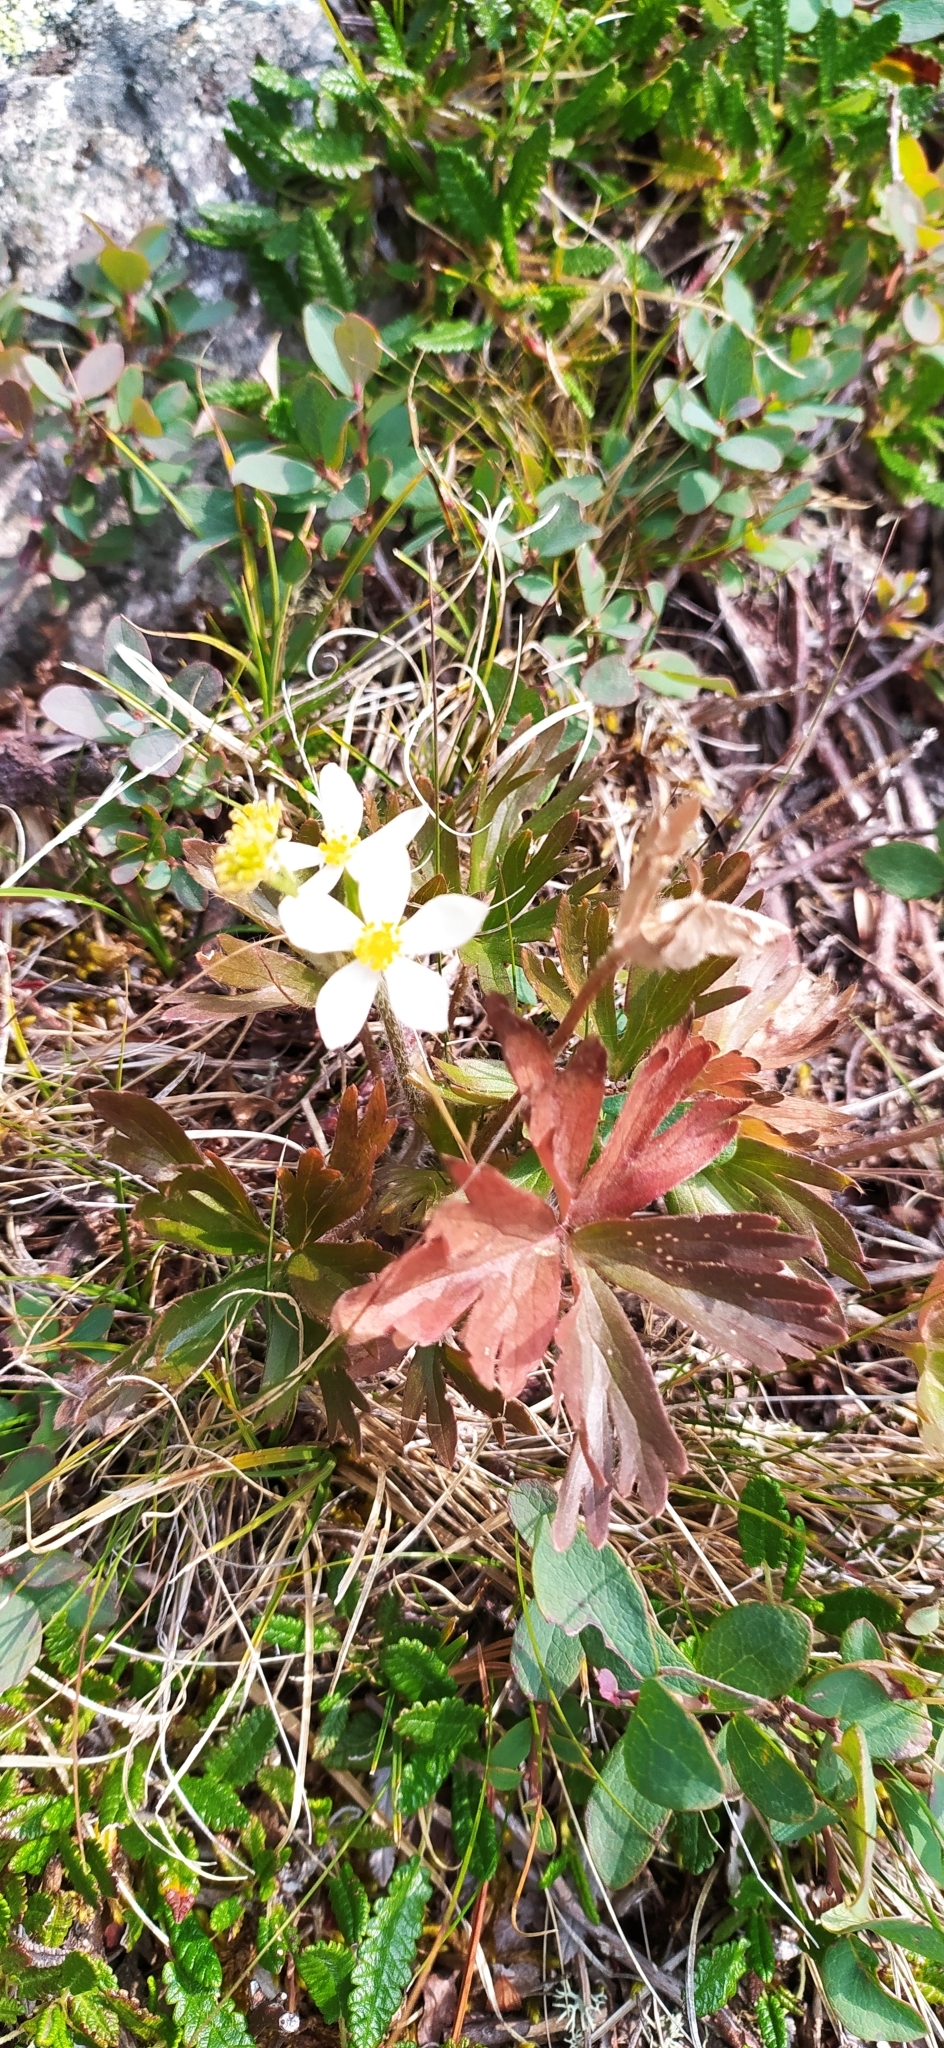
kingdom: Plantae
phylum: Tracheophyta
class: Magnoliopsida
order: Ranunculales
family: Ranunculaceae
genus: Anemonastrum
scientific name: Anemonastrum biarmiense
